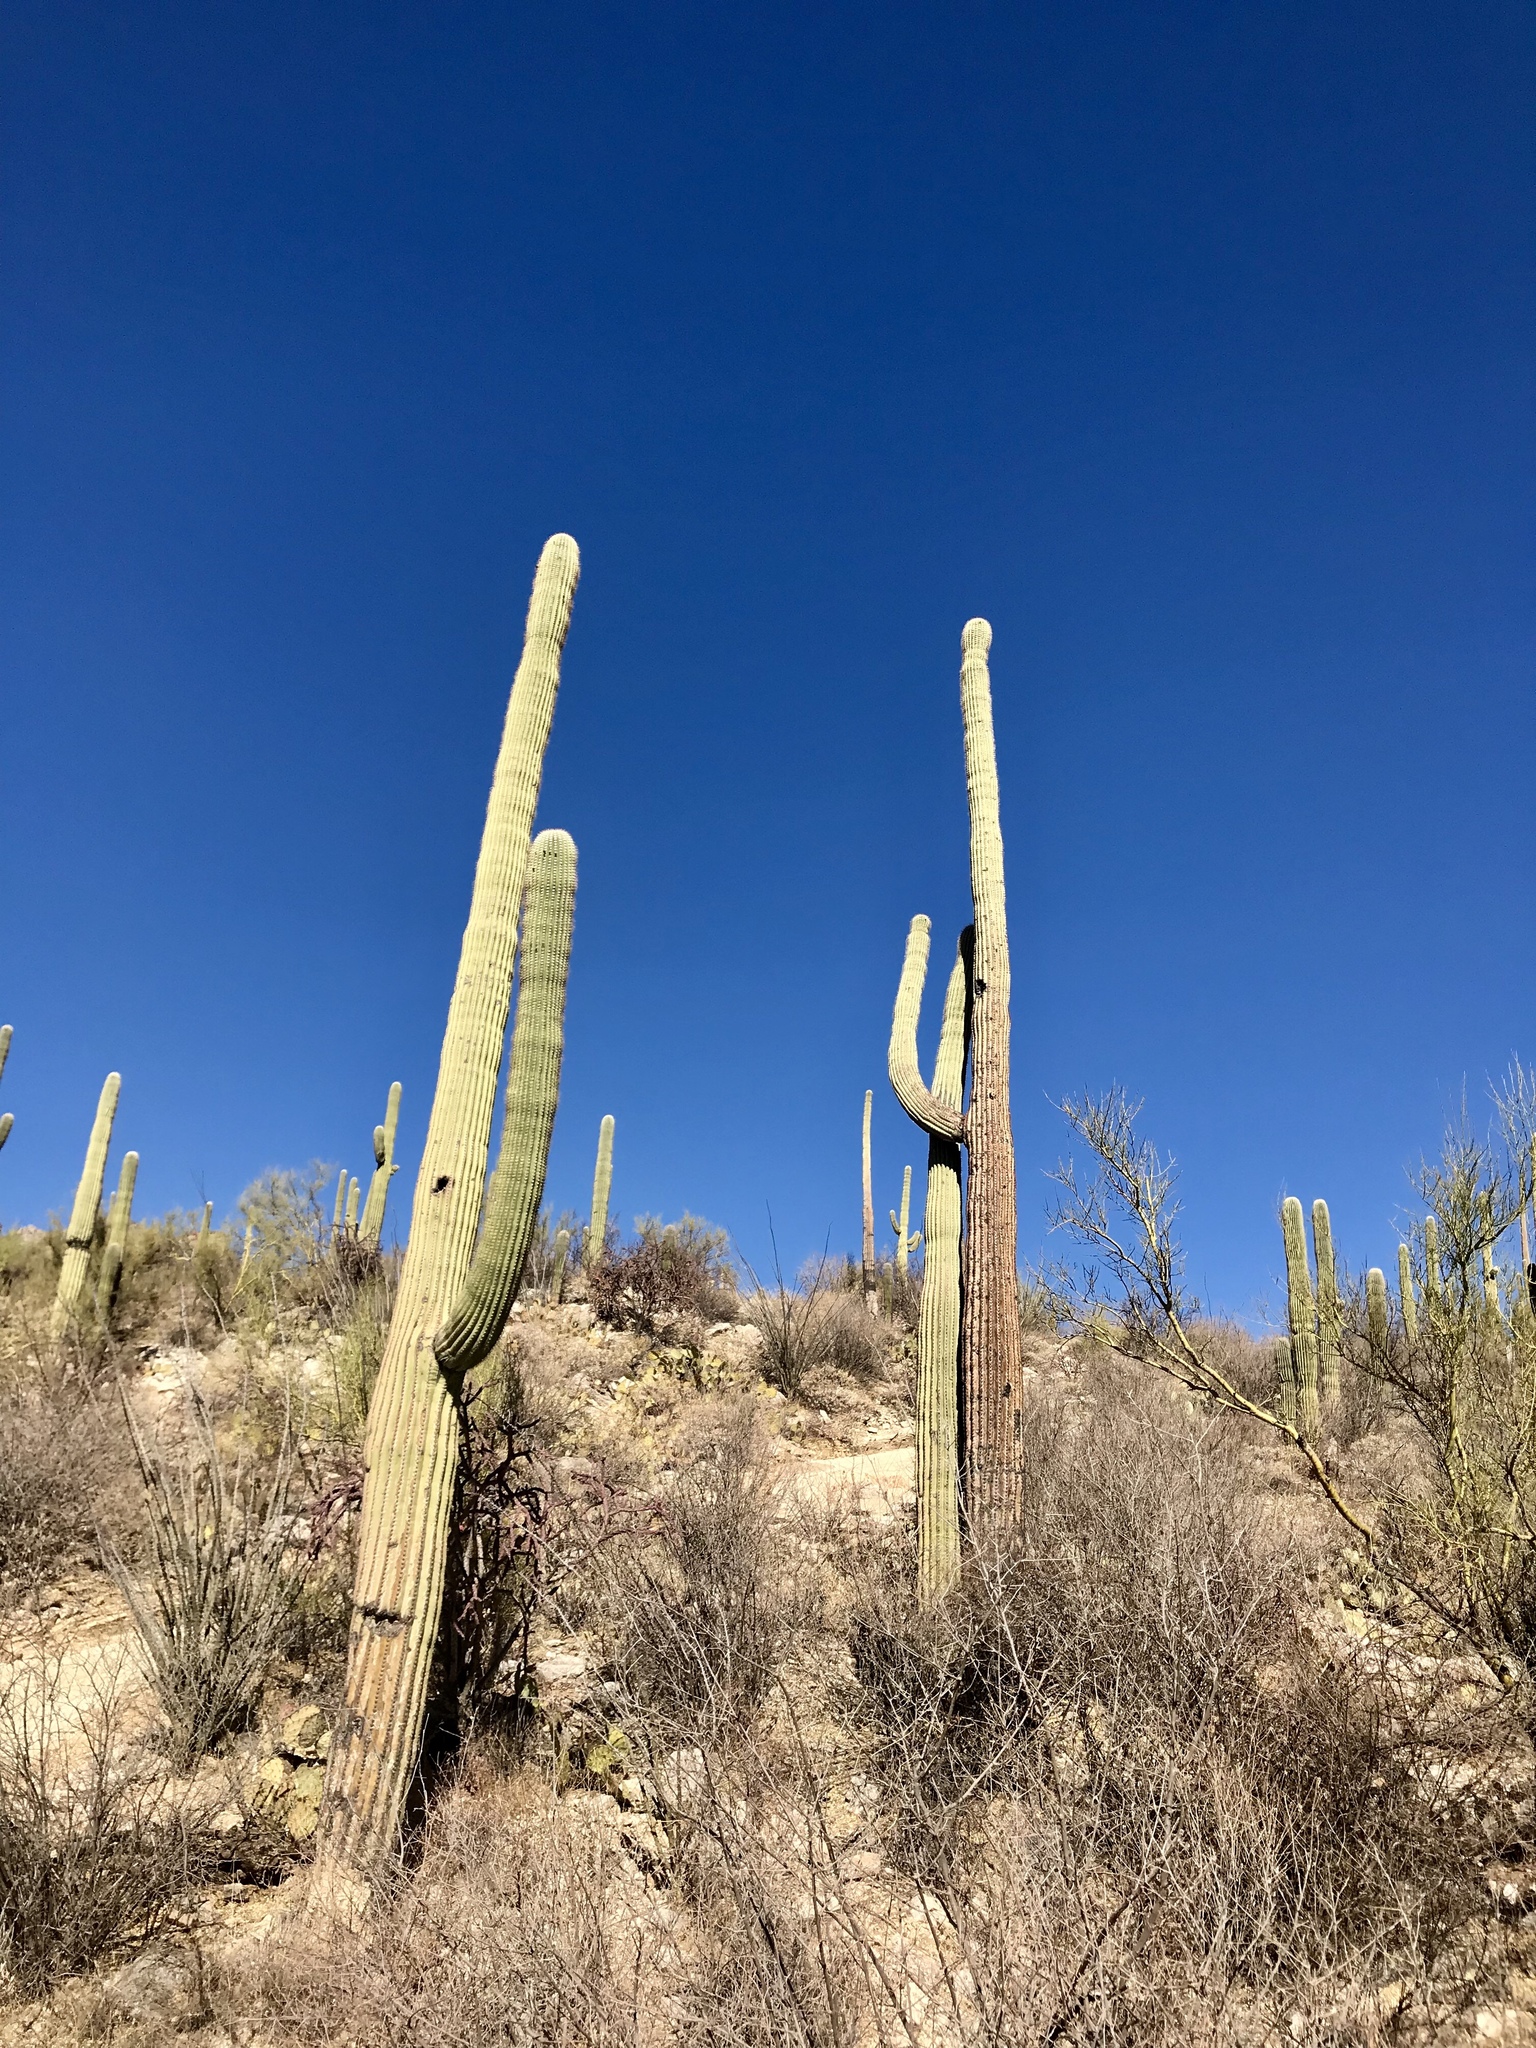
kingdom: Plantae
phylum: Tracheophyta
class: Magnoliopsida
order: Caryophyllales
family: Cactaceae
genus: Carnegiea
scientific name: Carnegiea gigantea
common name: Saguaro
